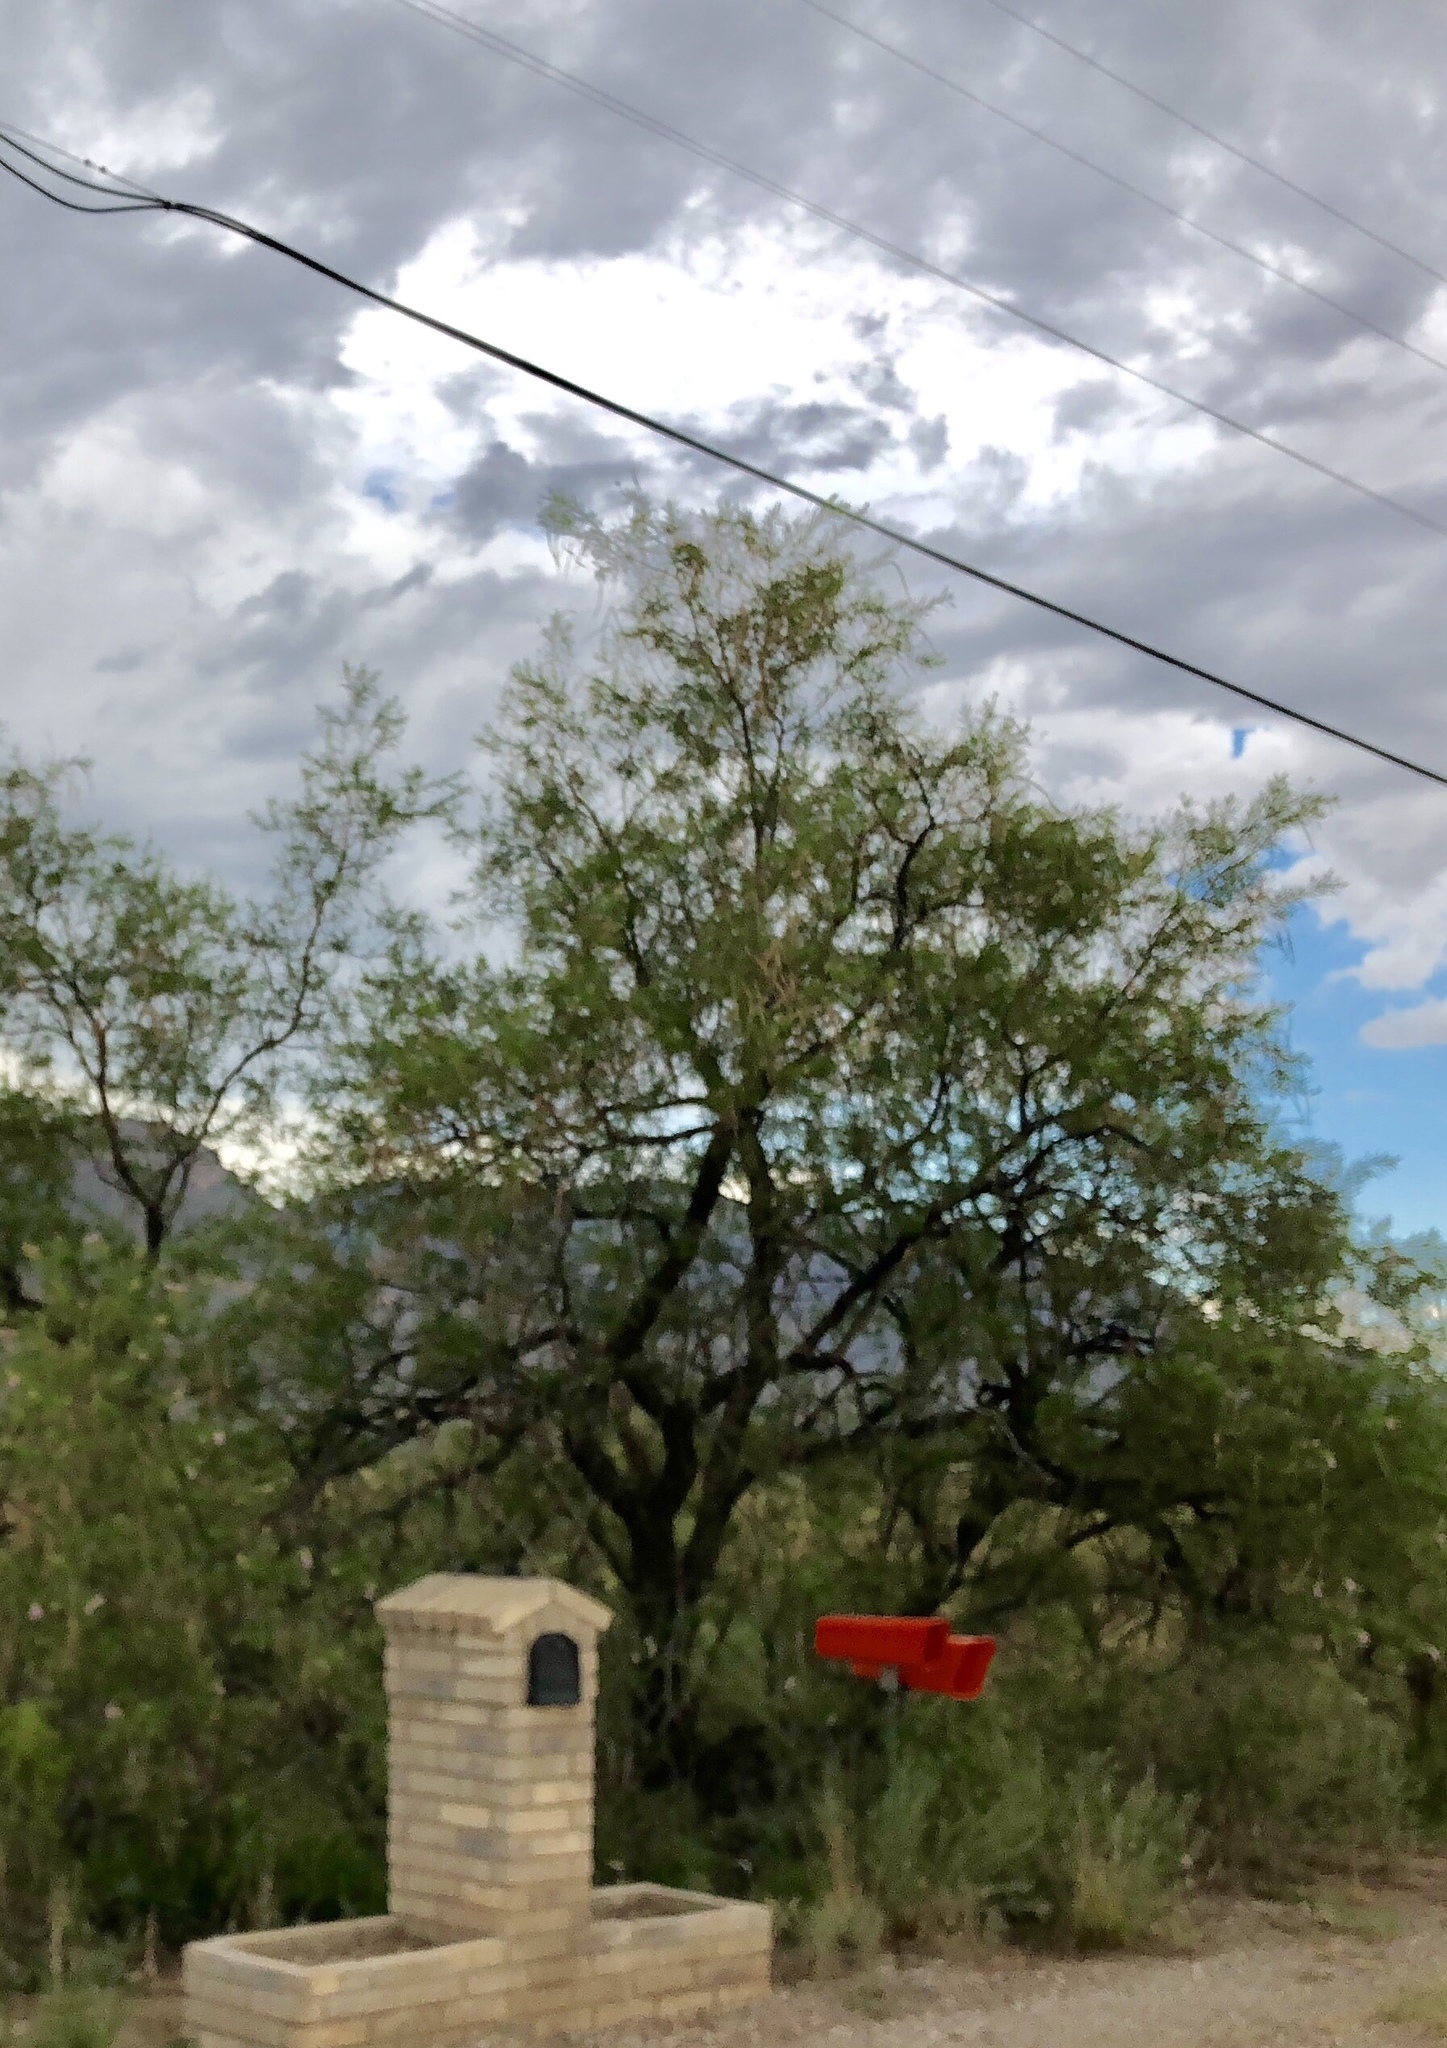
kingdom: Plantae
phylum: Tracheophyta
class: Magnoliopsida
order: Lamiales
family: Bignoniaceae
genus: Chilopsis
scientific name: Chilopsis linearis
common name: Desert-willow
